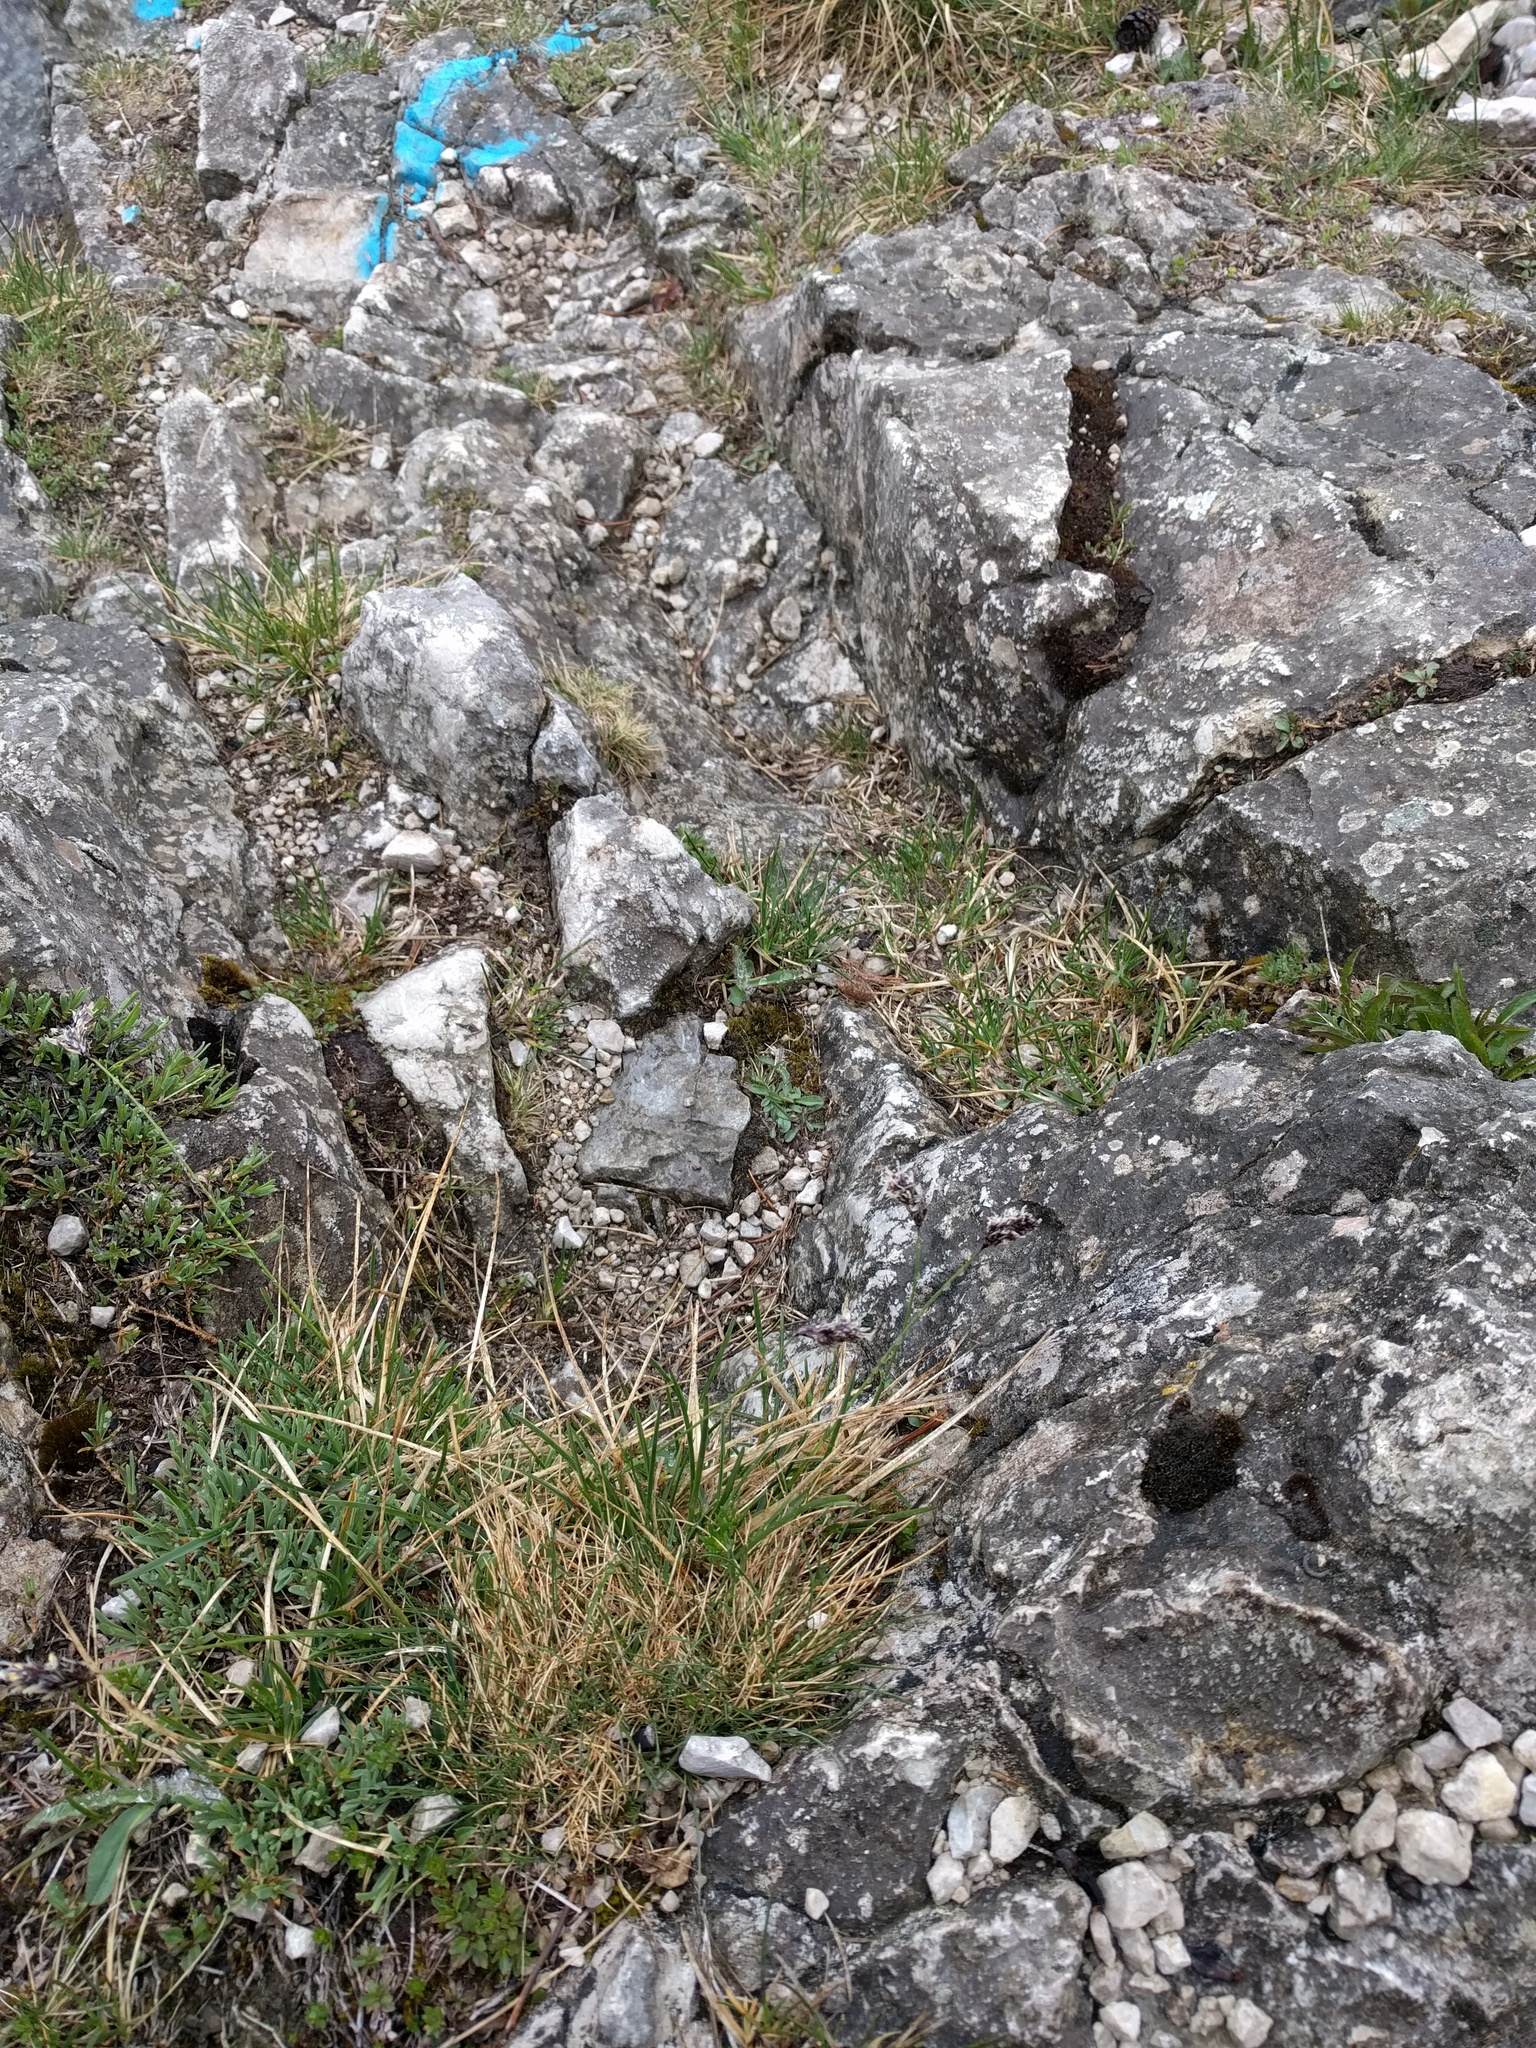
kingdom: Plantae
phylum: Tracheophyta
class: Liliopsida
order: Poales
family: Poaceae
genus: Sesleria
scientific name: Sesleria caerulea
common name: Blue moor-grass
